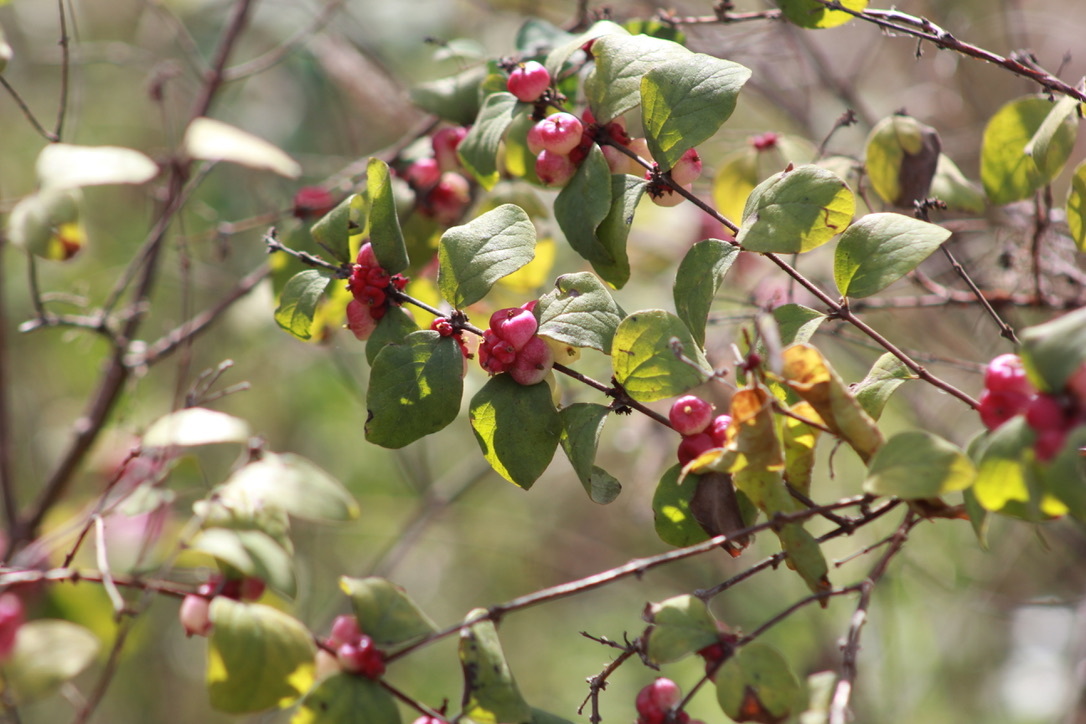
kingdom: Plantae
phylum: Tracheophyta
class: Magnoliopsida
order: Dipsacales
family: Caprifoliaceae
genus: Symphoricarpos
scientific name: Symphoricarpos orbiculatus
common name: Coralberry
